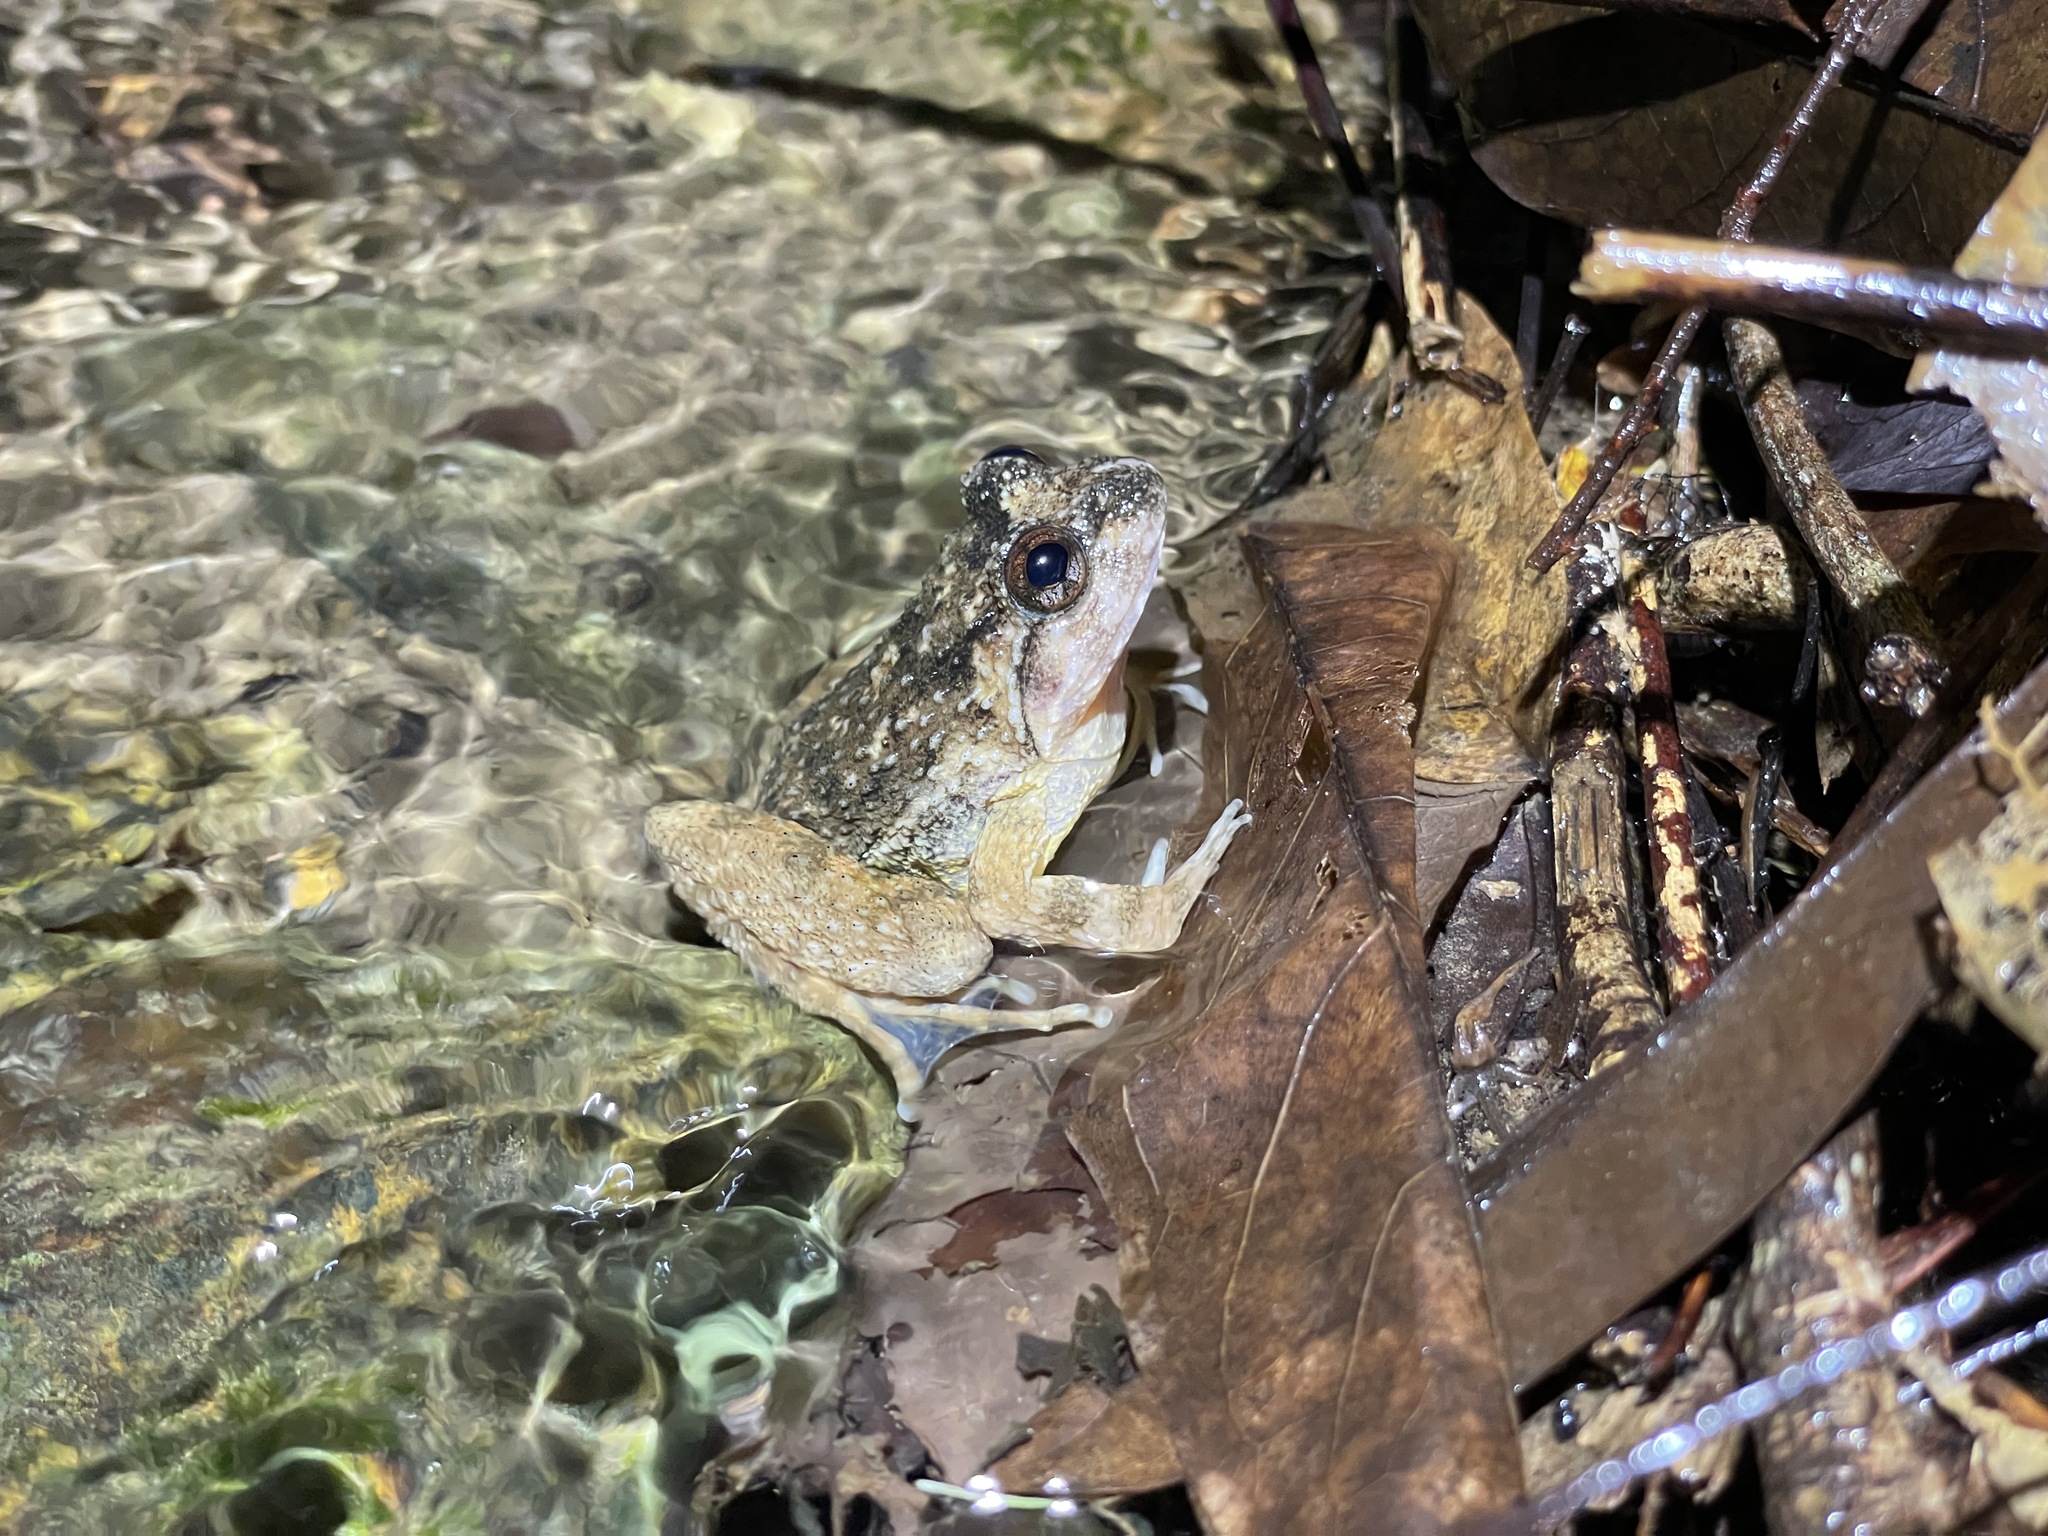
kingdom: Animalia
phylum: Chordata
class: Amphibia
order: Anura
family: Dicroglossidae
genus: Quasipaa
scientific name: Quasipaa exilispinosa
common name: Hong kong paa frog
